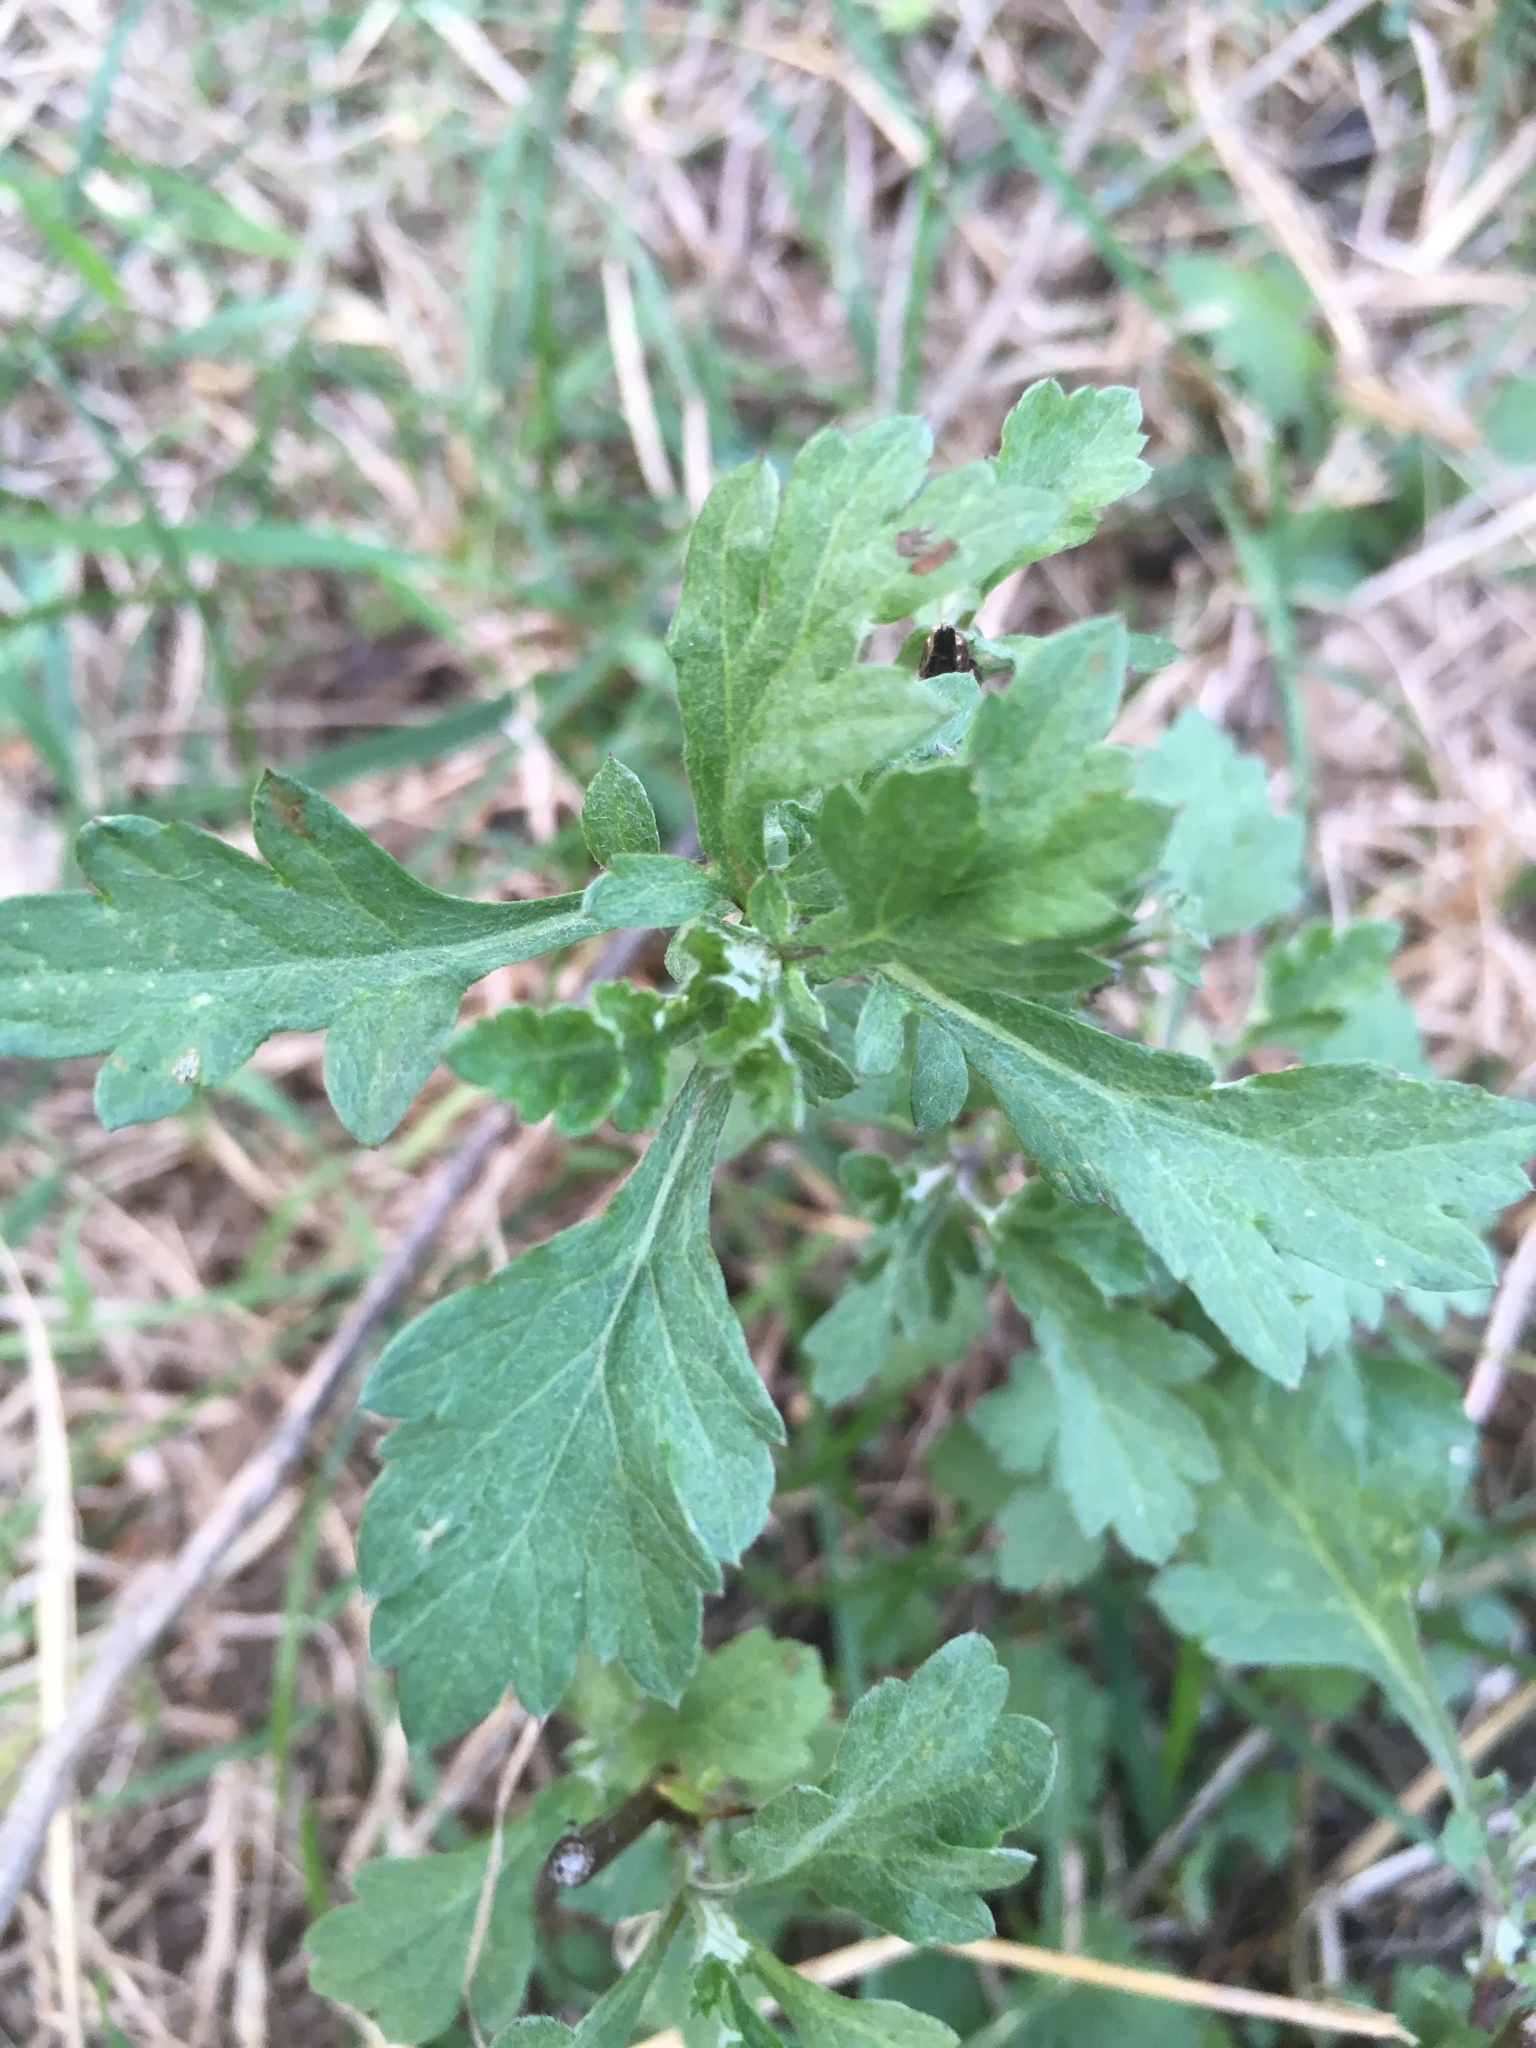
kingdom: Plantae
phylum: Tracheophyta
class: Magnoliopsida
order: Asterales
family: Asteraceae
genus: Artemisia
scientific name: Artemisia vulgaris
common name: Mugwort
